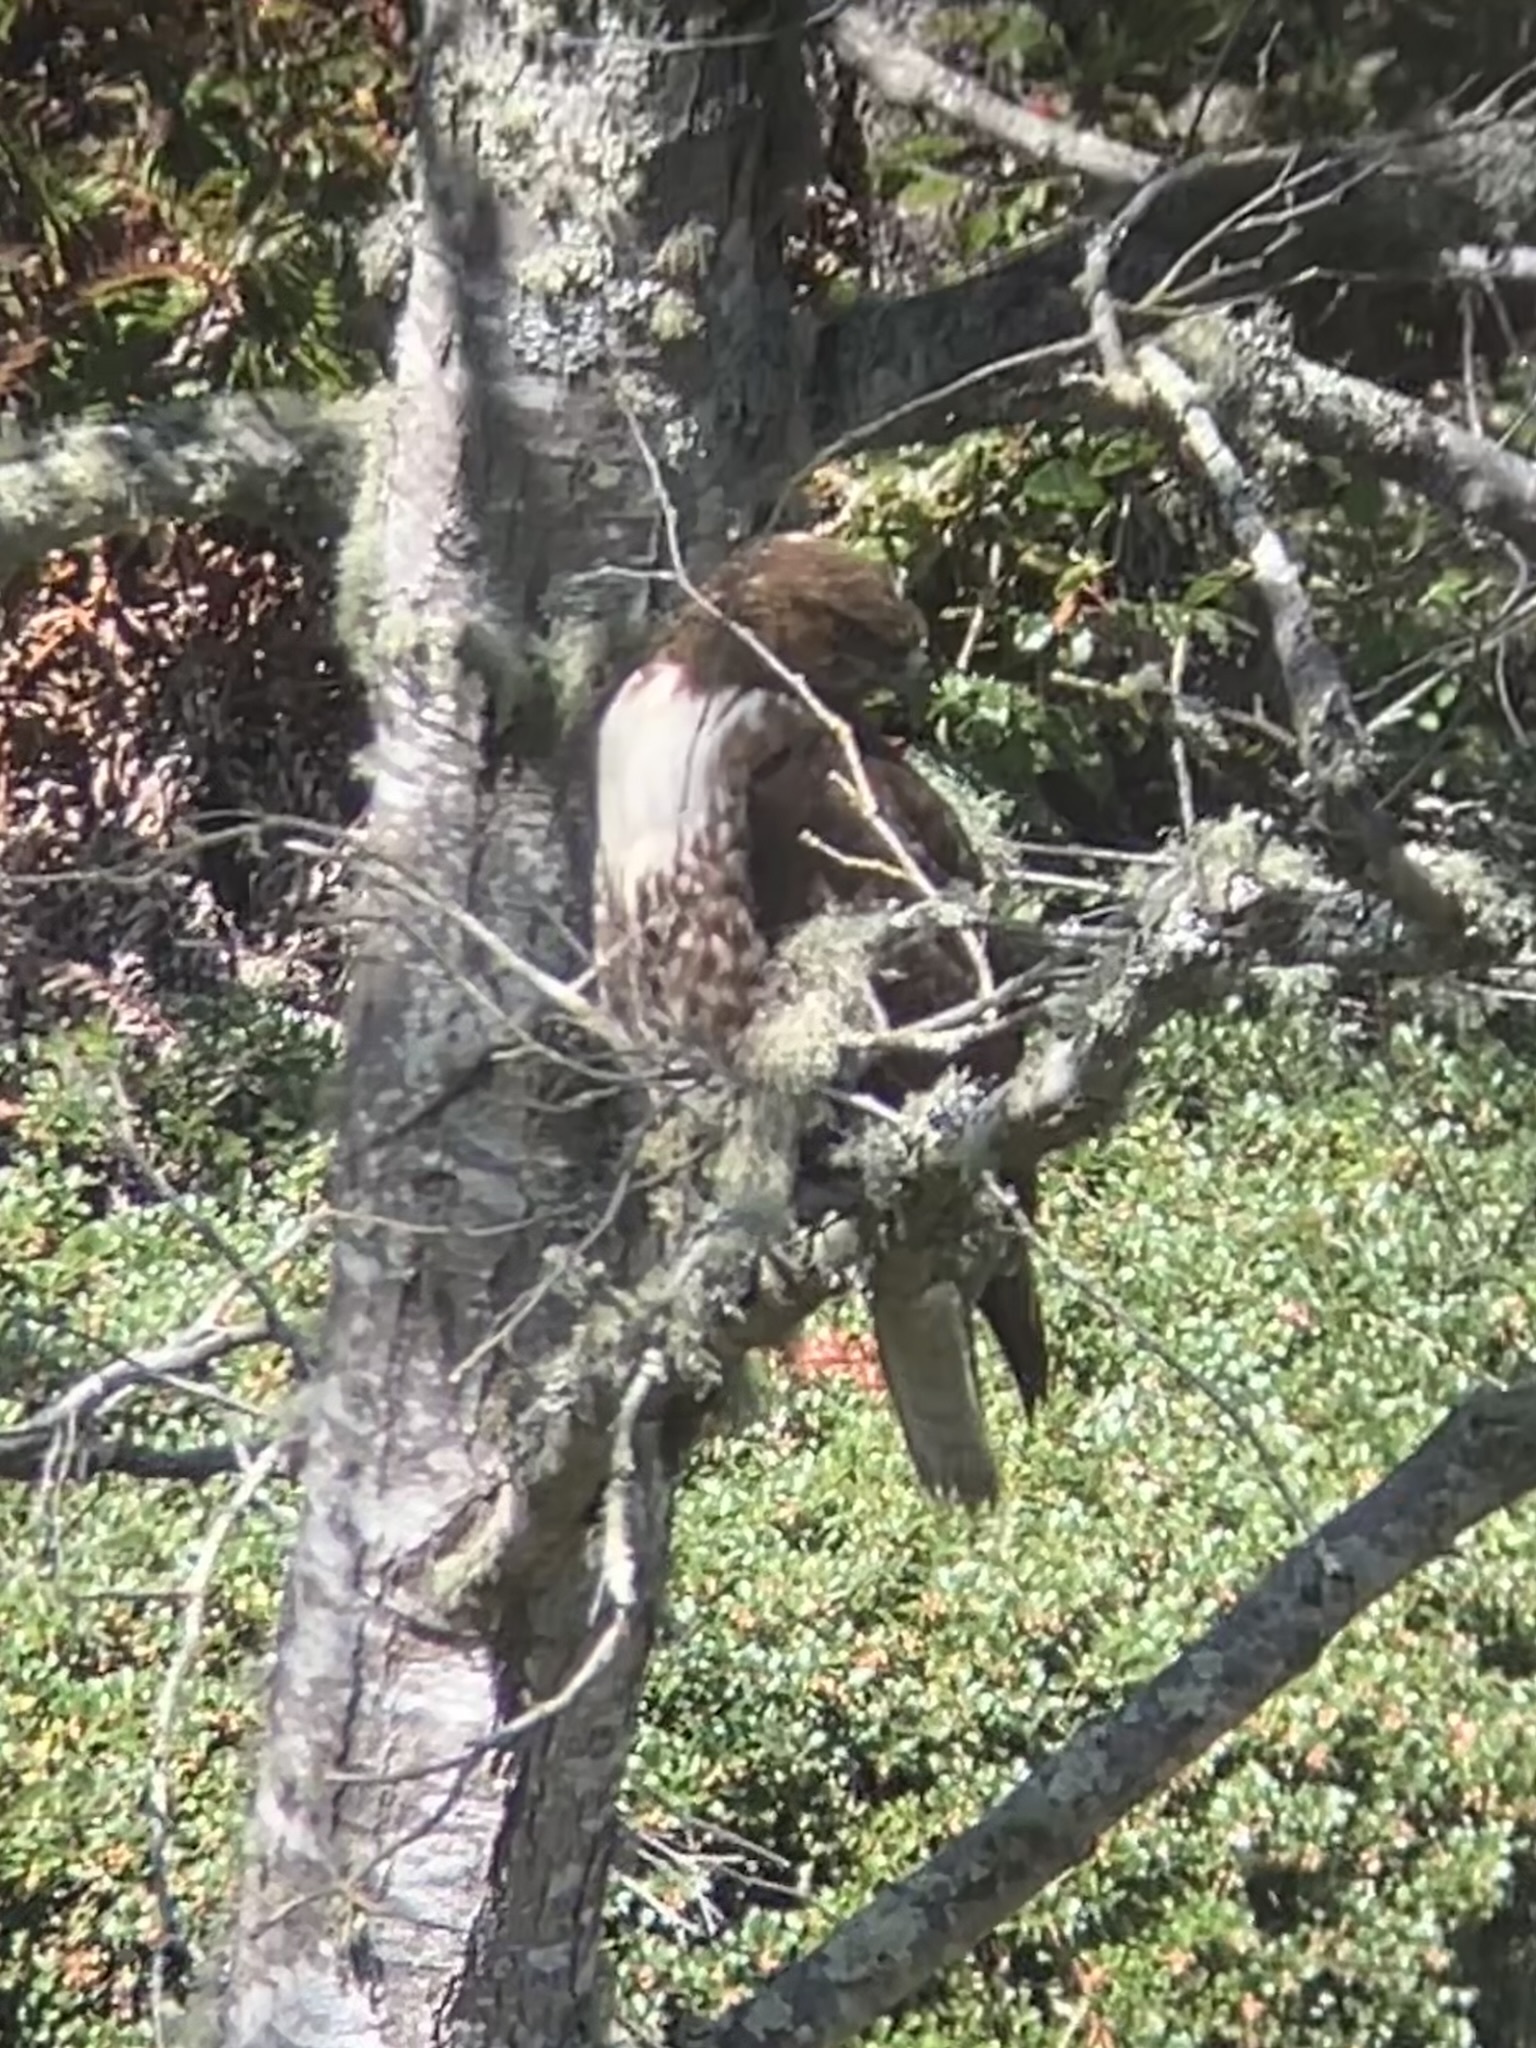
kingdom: Animalia
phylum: Chordata
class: Aves
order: Accipitriformes
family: Accipitridae
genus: Buteo
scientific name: Buteo jamaicensis
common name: Red-tailed hawk
